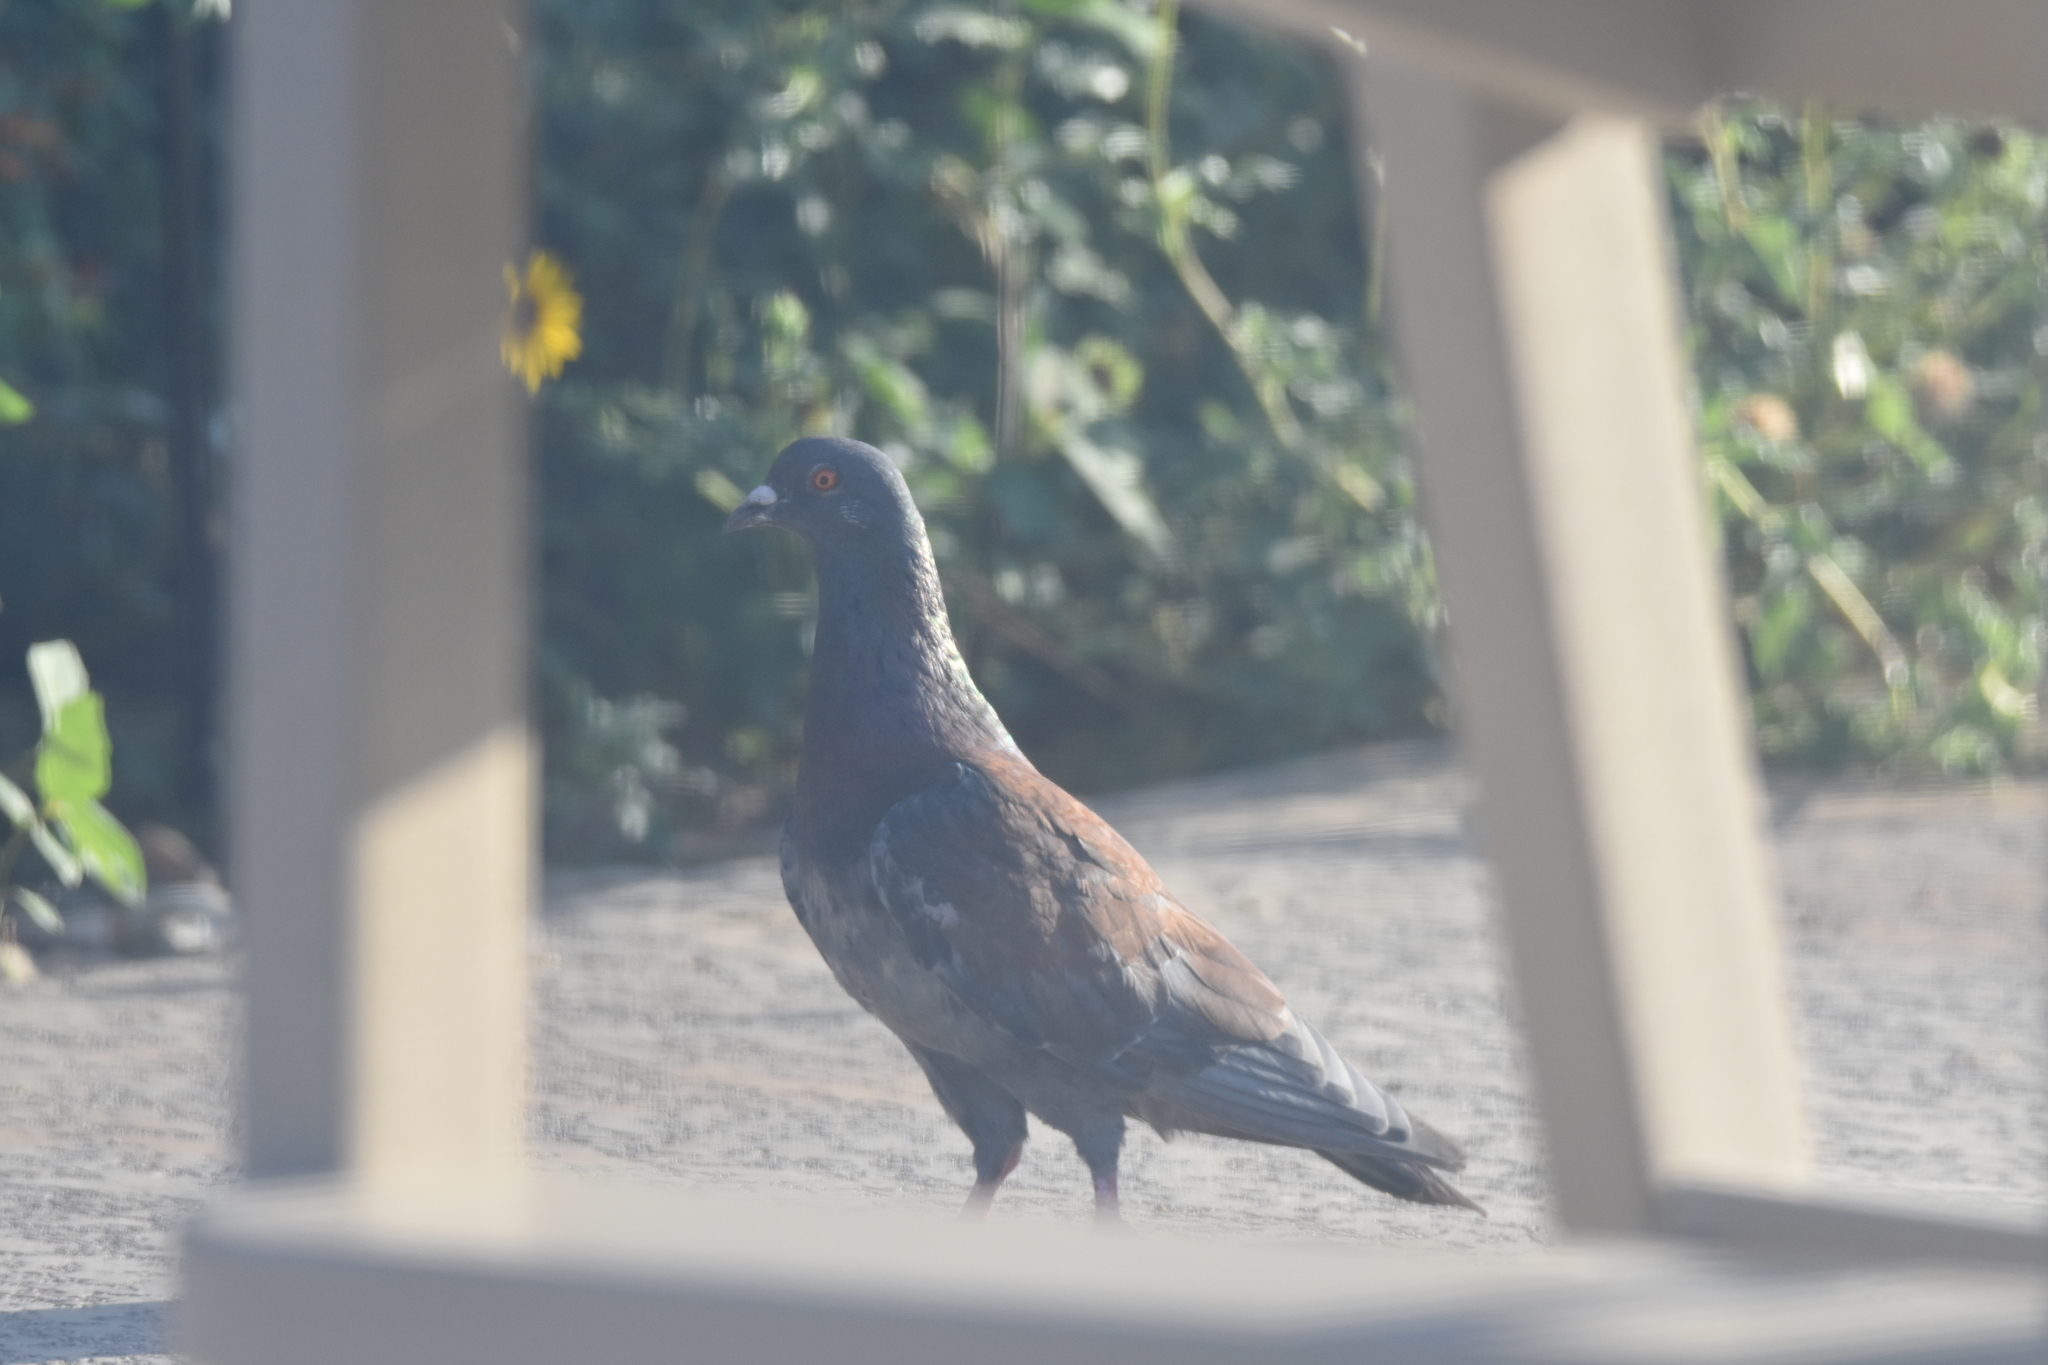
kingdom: Animalia
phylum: Chordata
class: Aves
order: Columbiformes
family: Columbidae
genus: Columba
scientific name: Columba livia
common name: Rock pigeon
